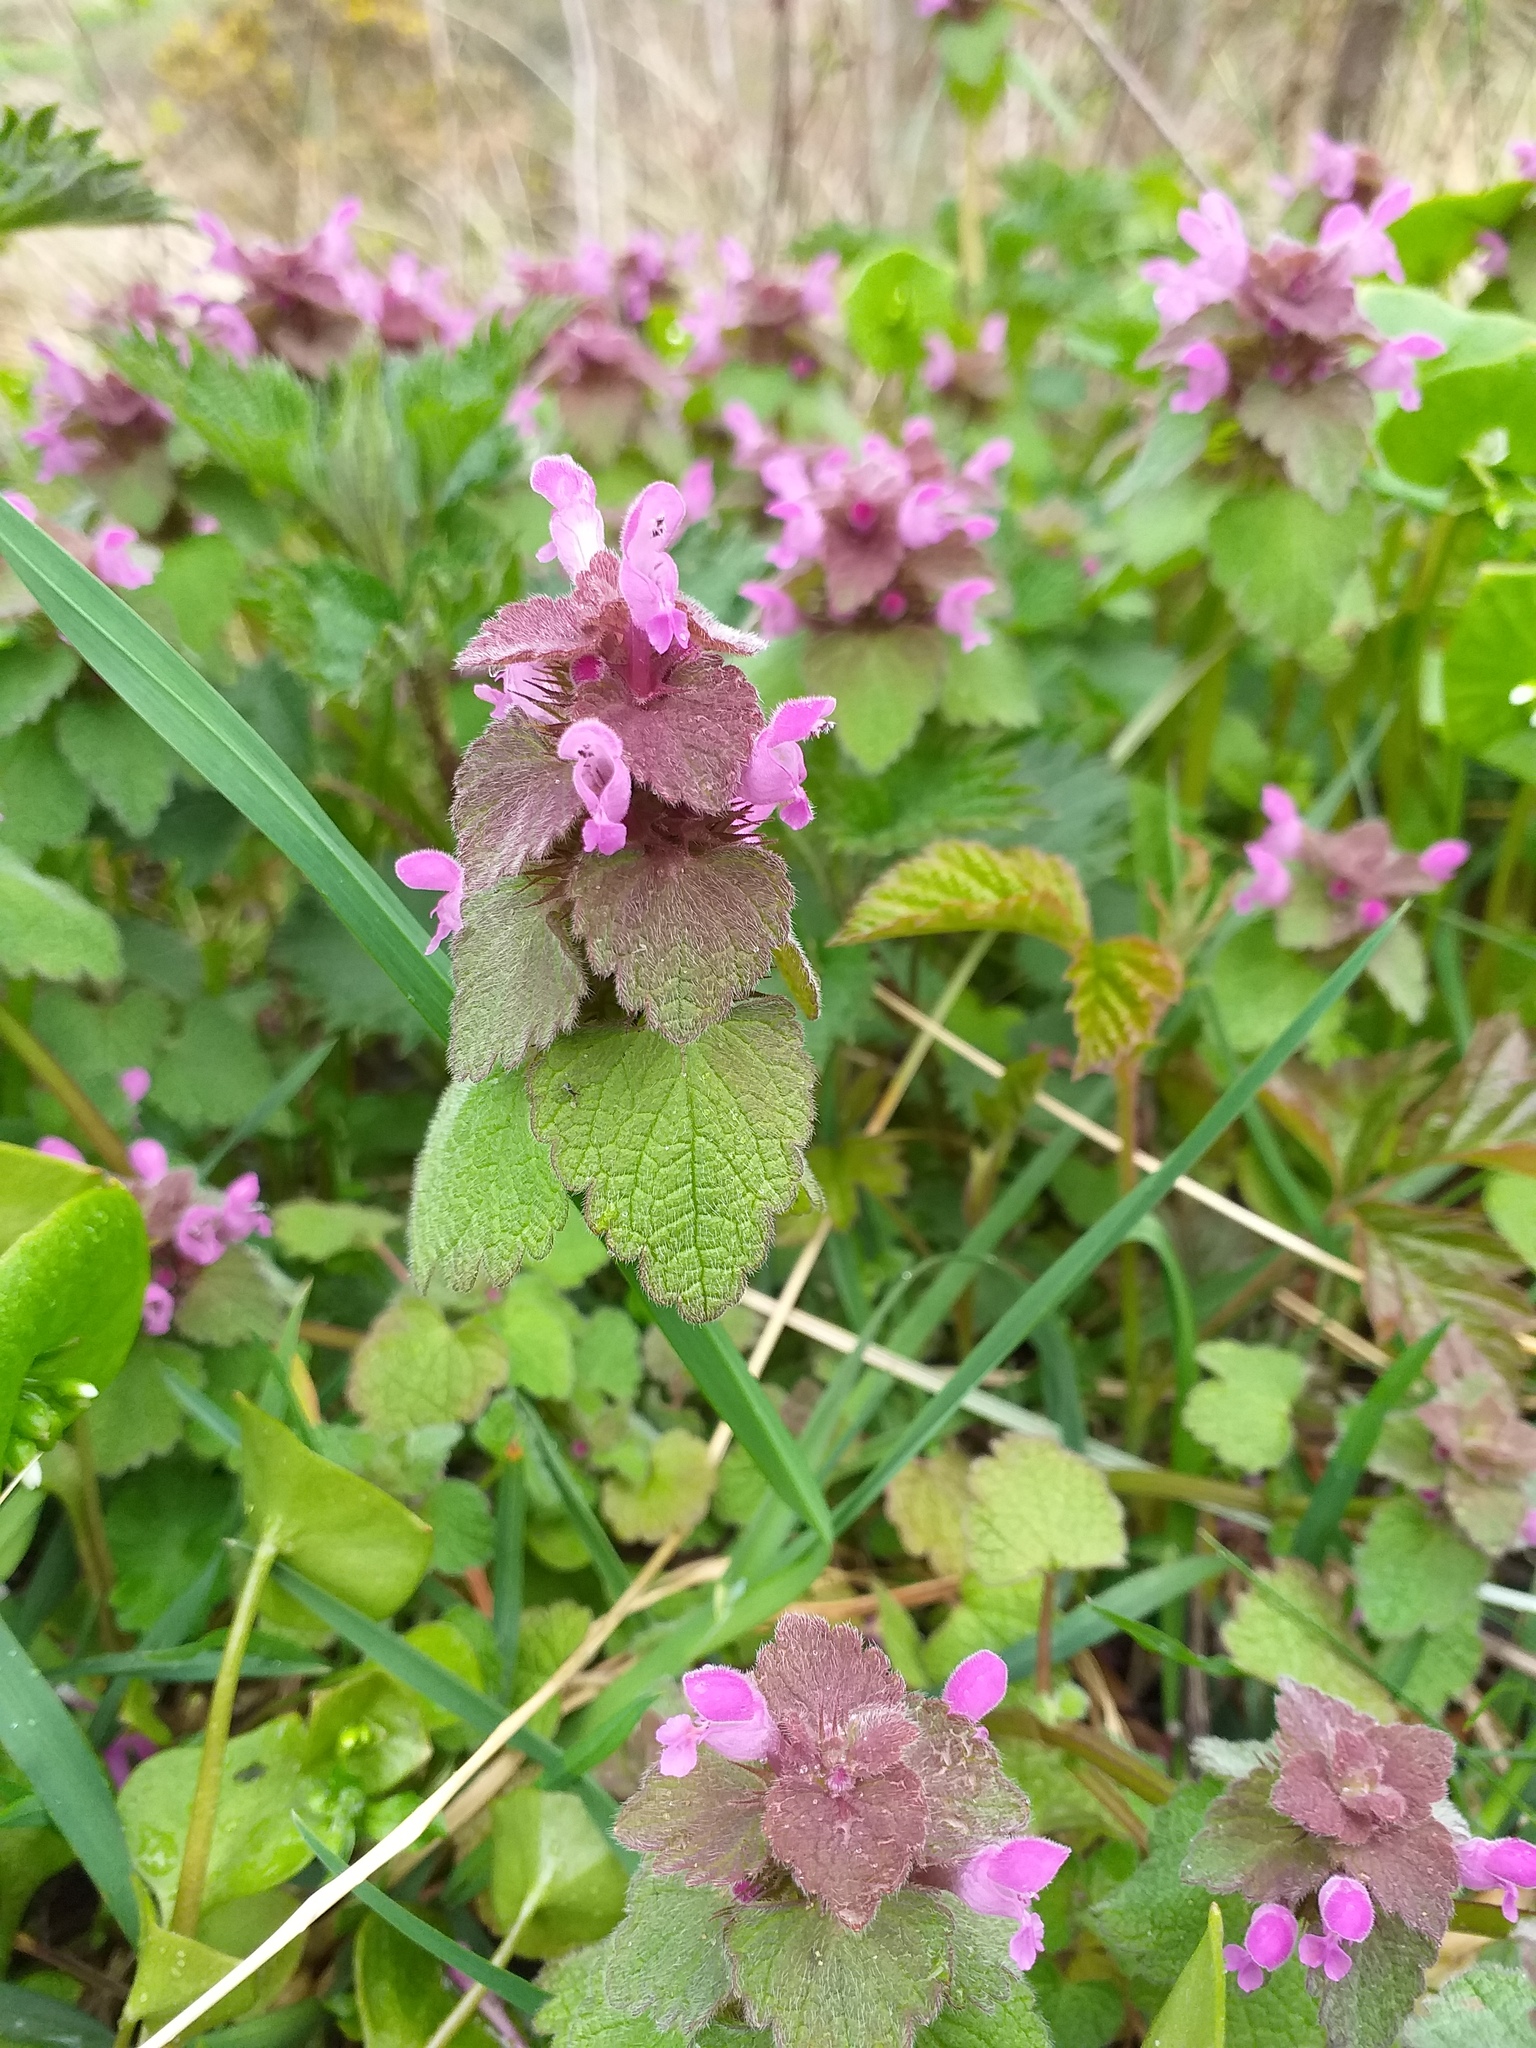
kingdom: Plantae
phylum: Tracheophyta
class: Magnoliopsida
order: Lamiales
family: Lamiaceae
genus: Lamium
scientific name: Lamium purpureum
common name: Red dead-nettle
